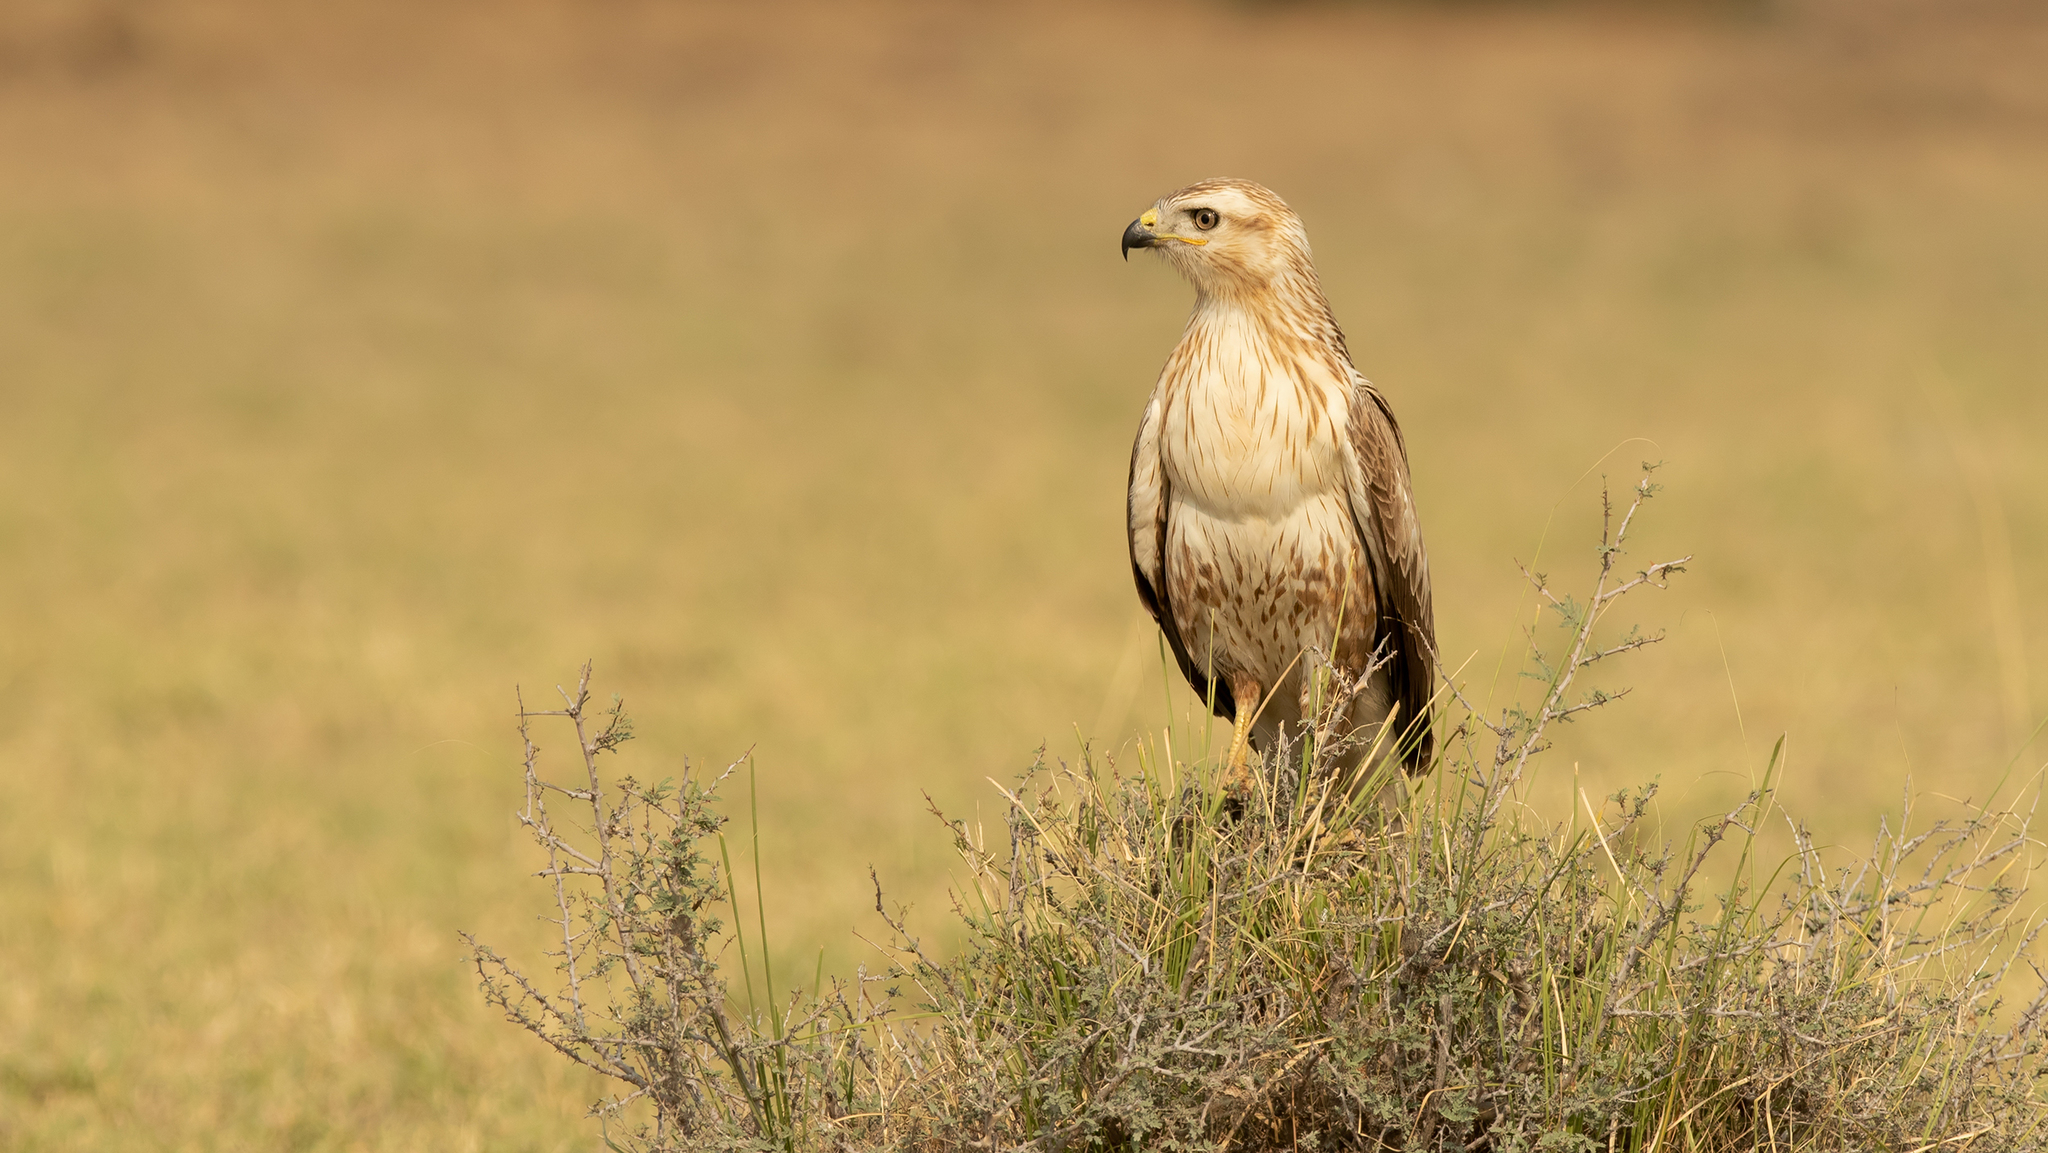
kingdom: Animalia
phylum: Chordata
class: Aves
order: Accipitriformes
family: Accipitridae
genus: Buteo
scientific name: Buteo rufinus
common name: Long-legged buzzard
